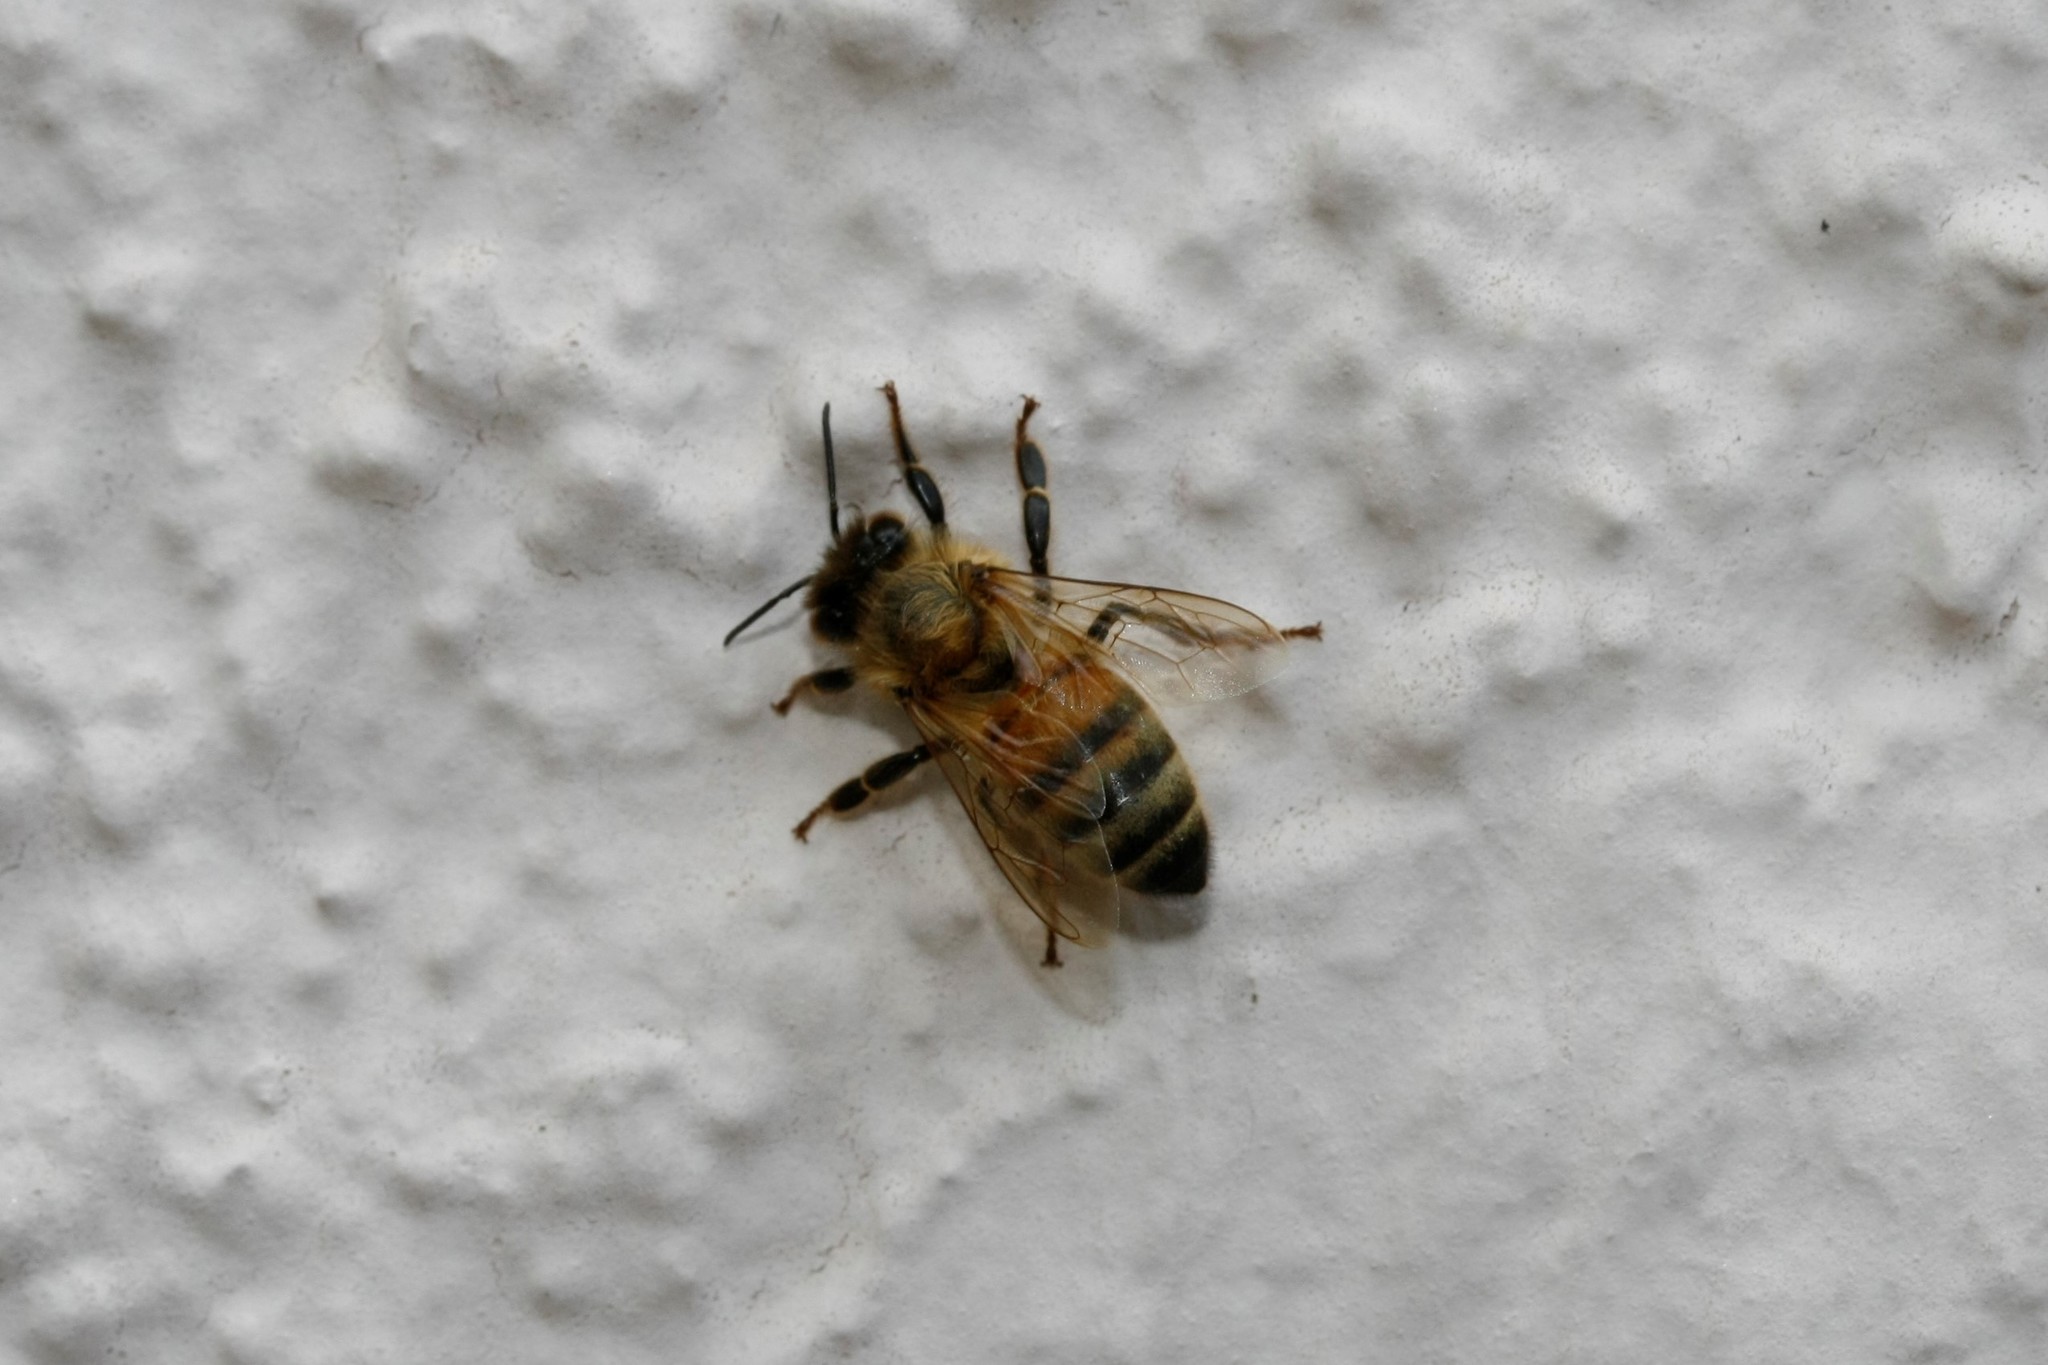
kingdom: Animalia
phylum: Arthropoda
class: Insecta
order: Hymenoptera
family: Apidae
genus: Apis
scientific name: Apis mellifera
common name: Honey bee
